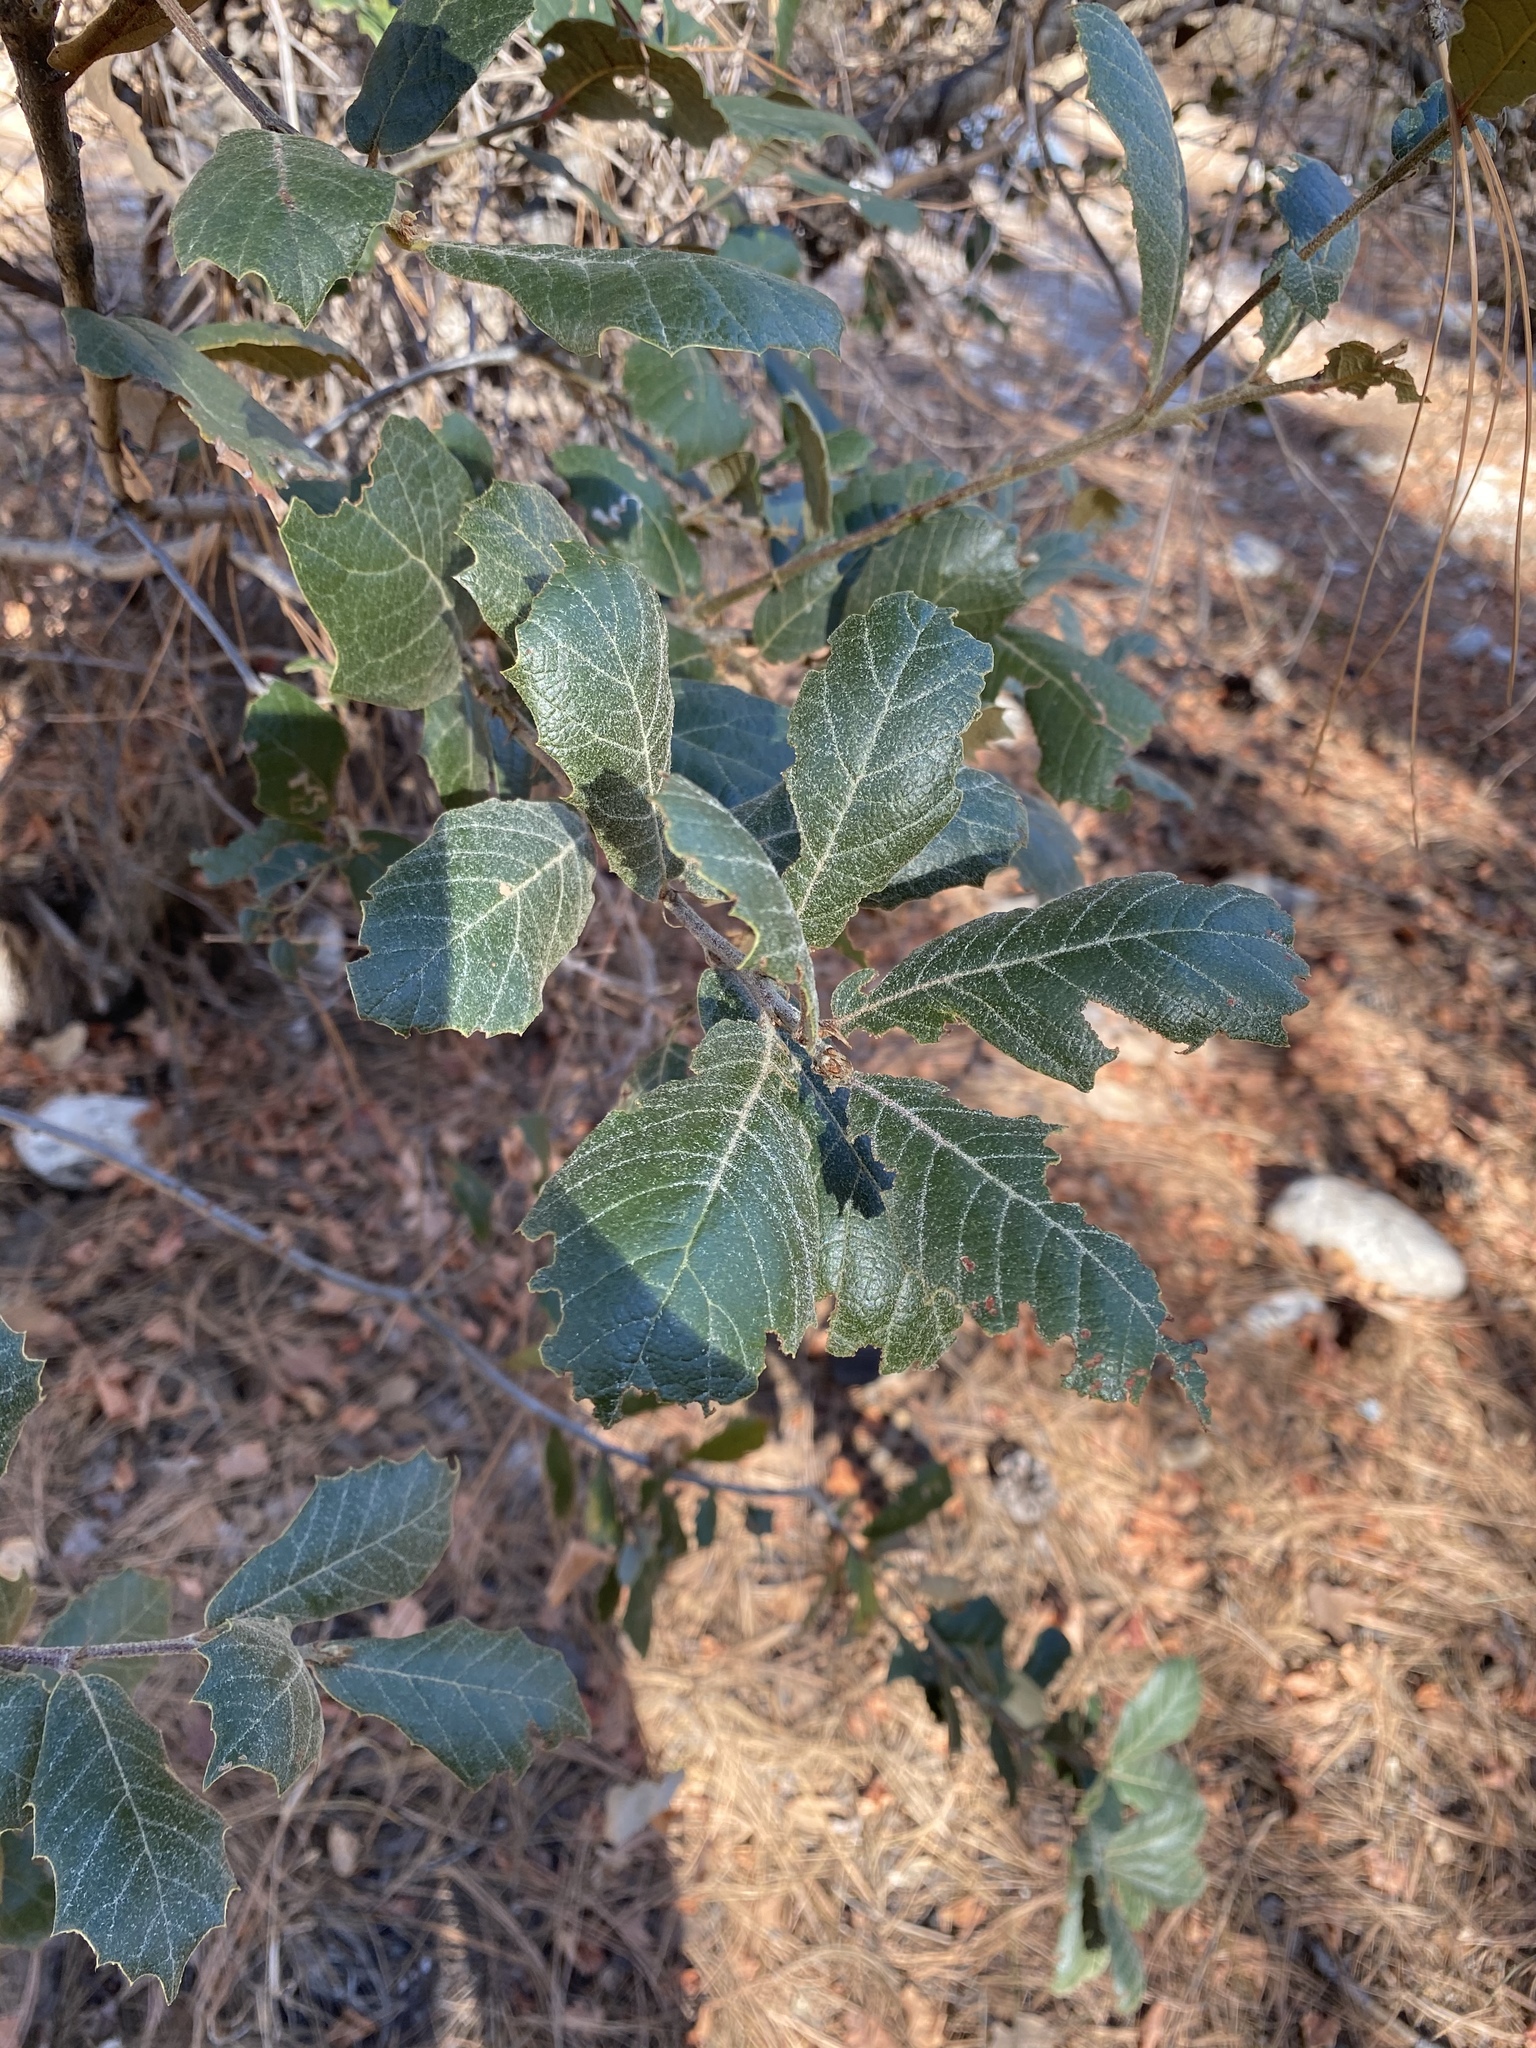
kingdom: Plantae
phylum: Tracheophyta
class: Magnoliopsida
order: Fagales
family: Fagaceae
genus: Quercus
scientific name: Quercus rugosa
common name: Netleaf oak
